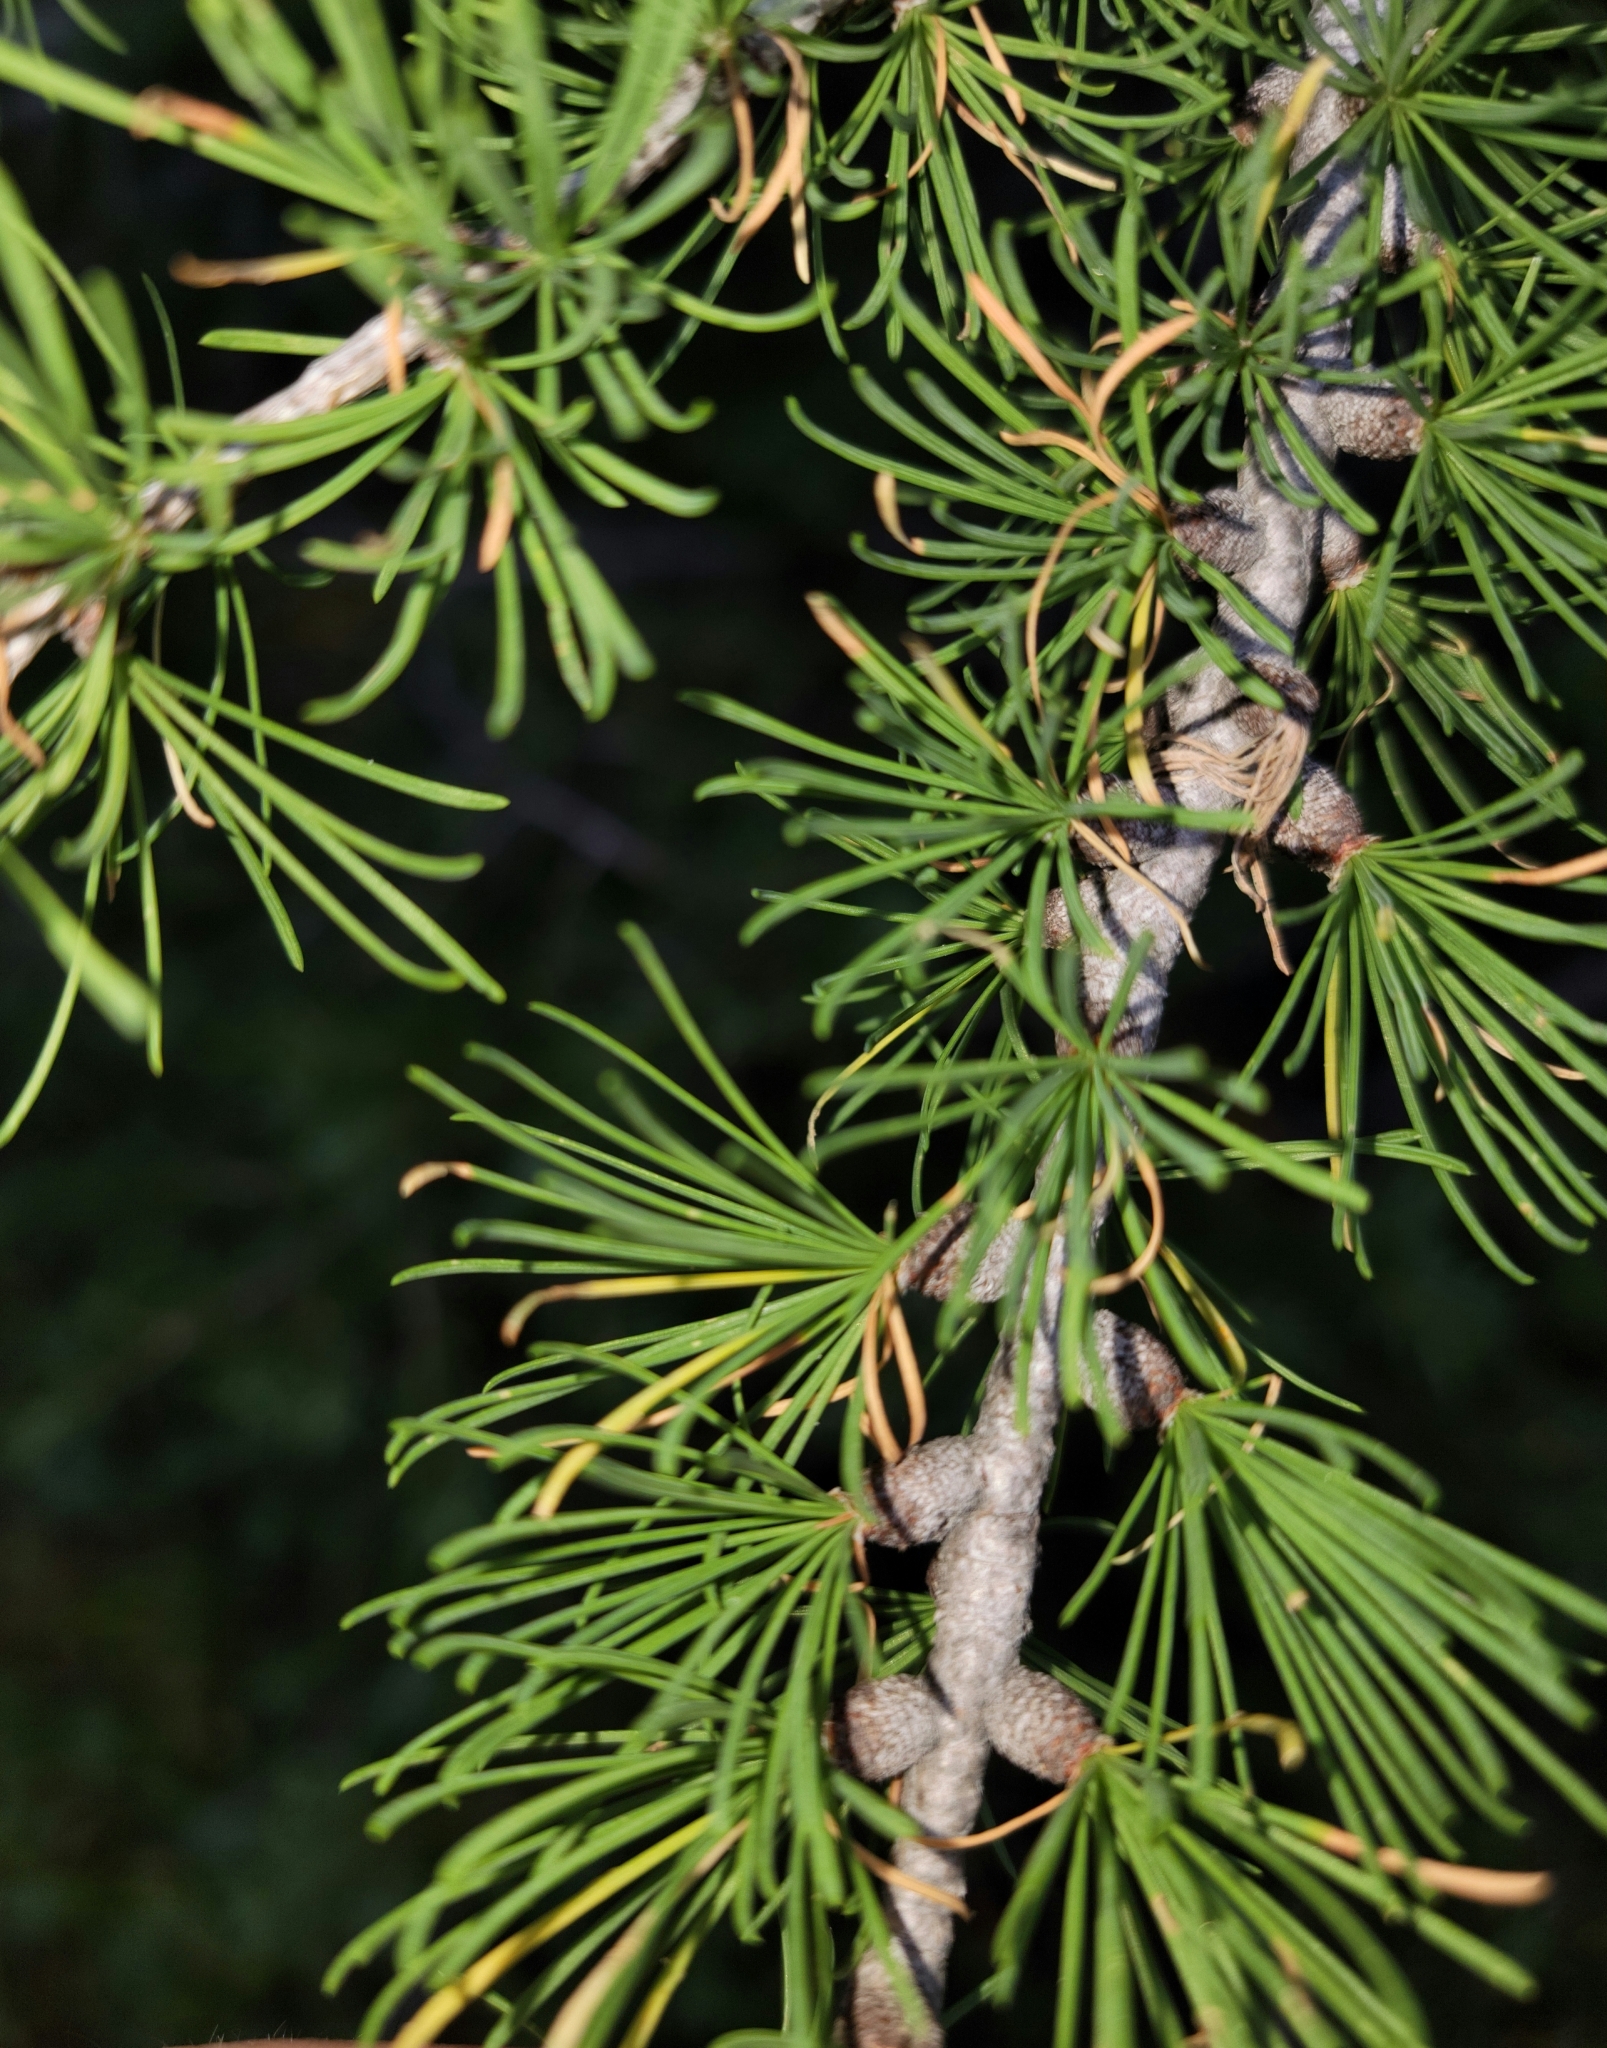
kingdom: Plantae
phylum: Tracheophyta
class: Pinopsida
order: Pinales
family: Pinaceae
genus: Larix
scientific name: Larix lyallii
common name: Alpine larch
